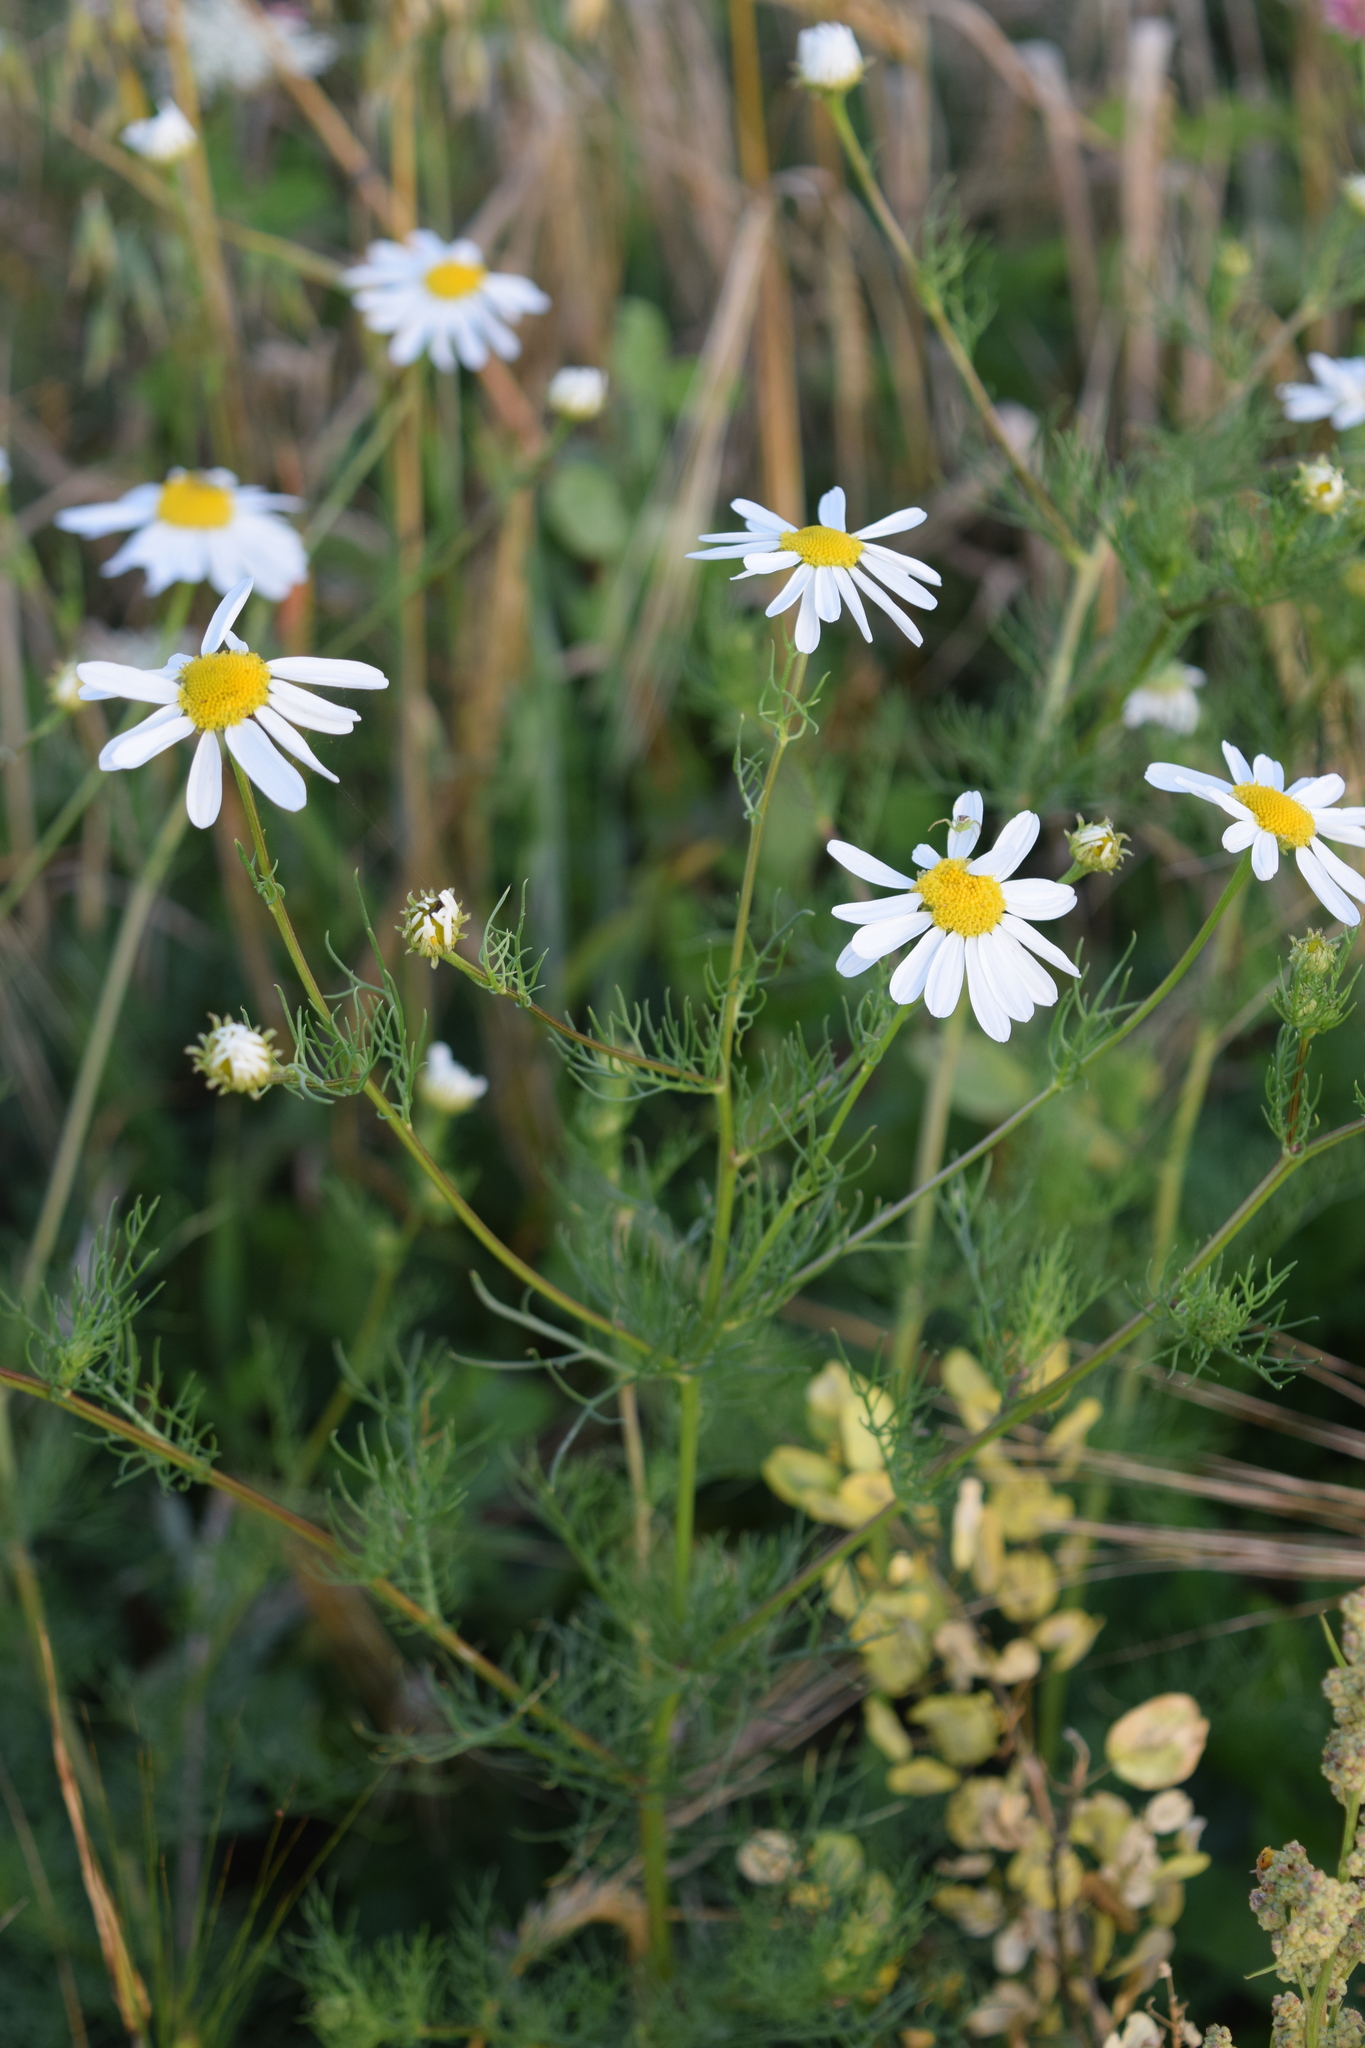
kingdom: Plantae
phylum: Tracheophyta
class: Magnoliopsida
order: Asterales
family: Asteraceae
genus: Tripleurospermum
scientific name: Tripleurospermum inodorum
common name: Scentless mayweed
